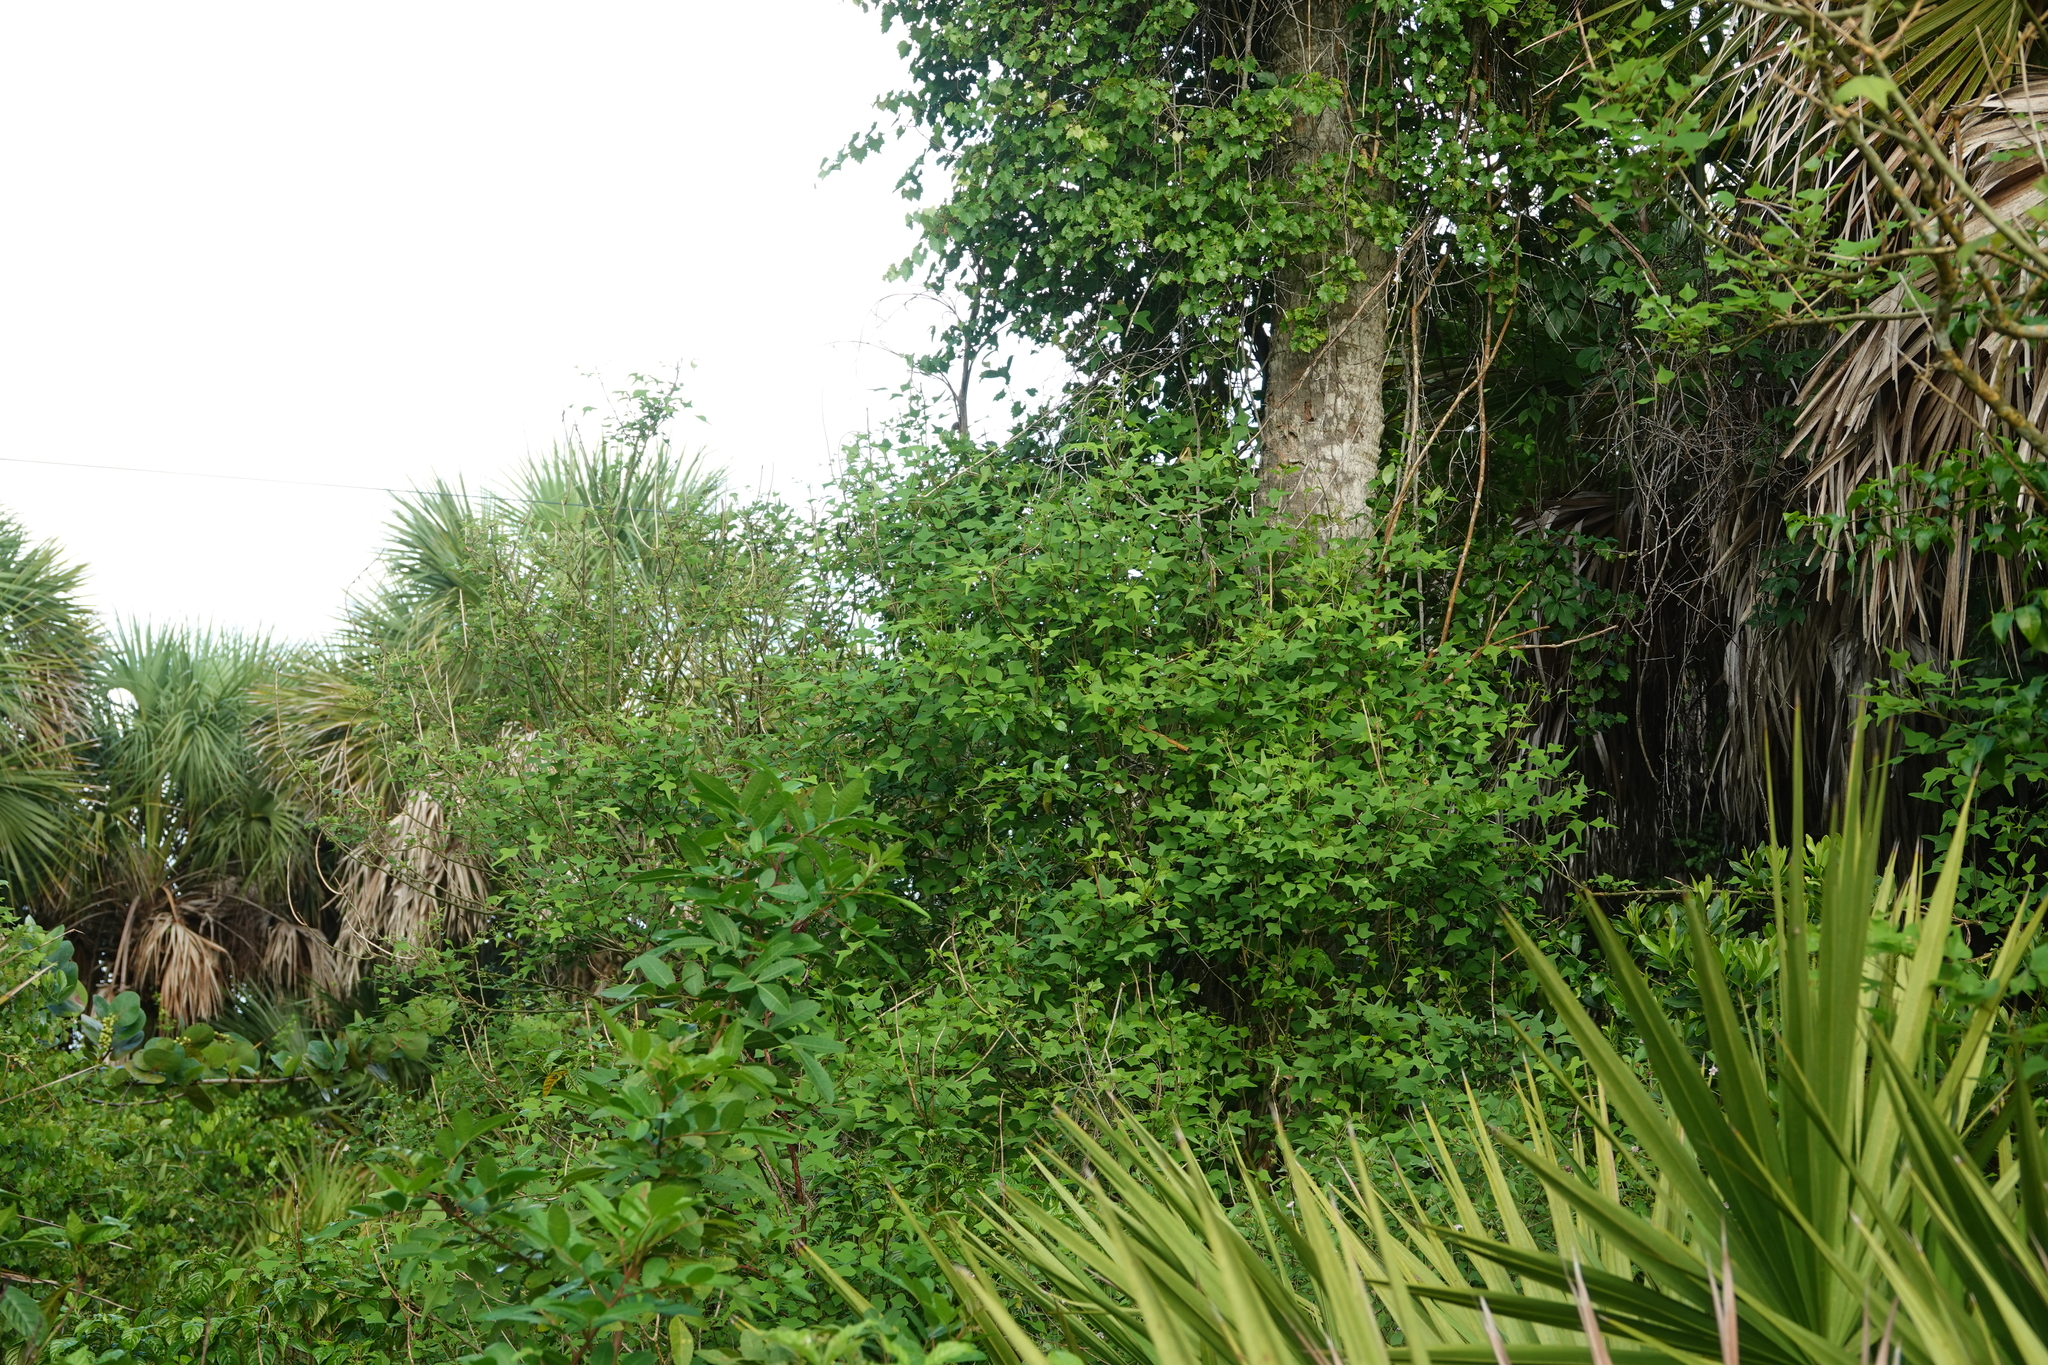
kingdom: Plantae
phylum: Tracheophyta
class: Magnoliopsida
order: Fabales
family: Fabaceae
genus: Erythrina
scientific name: Erythrina herbacea
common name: Coral-bean
